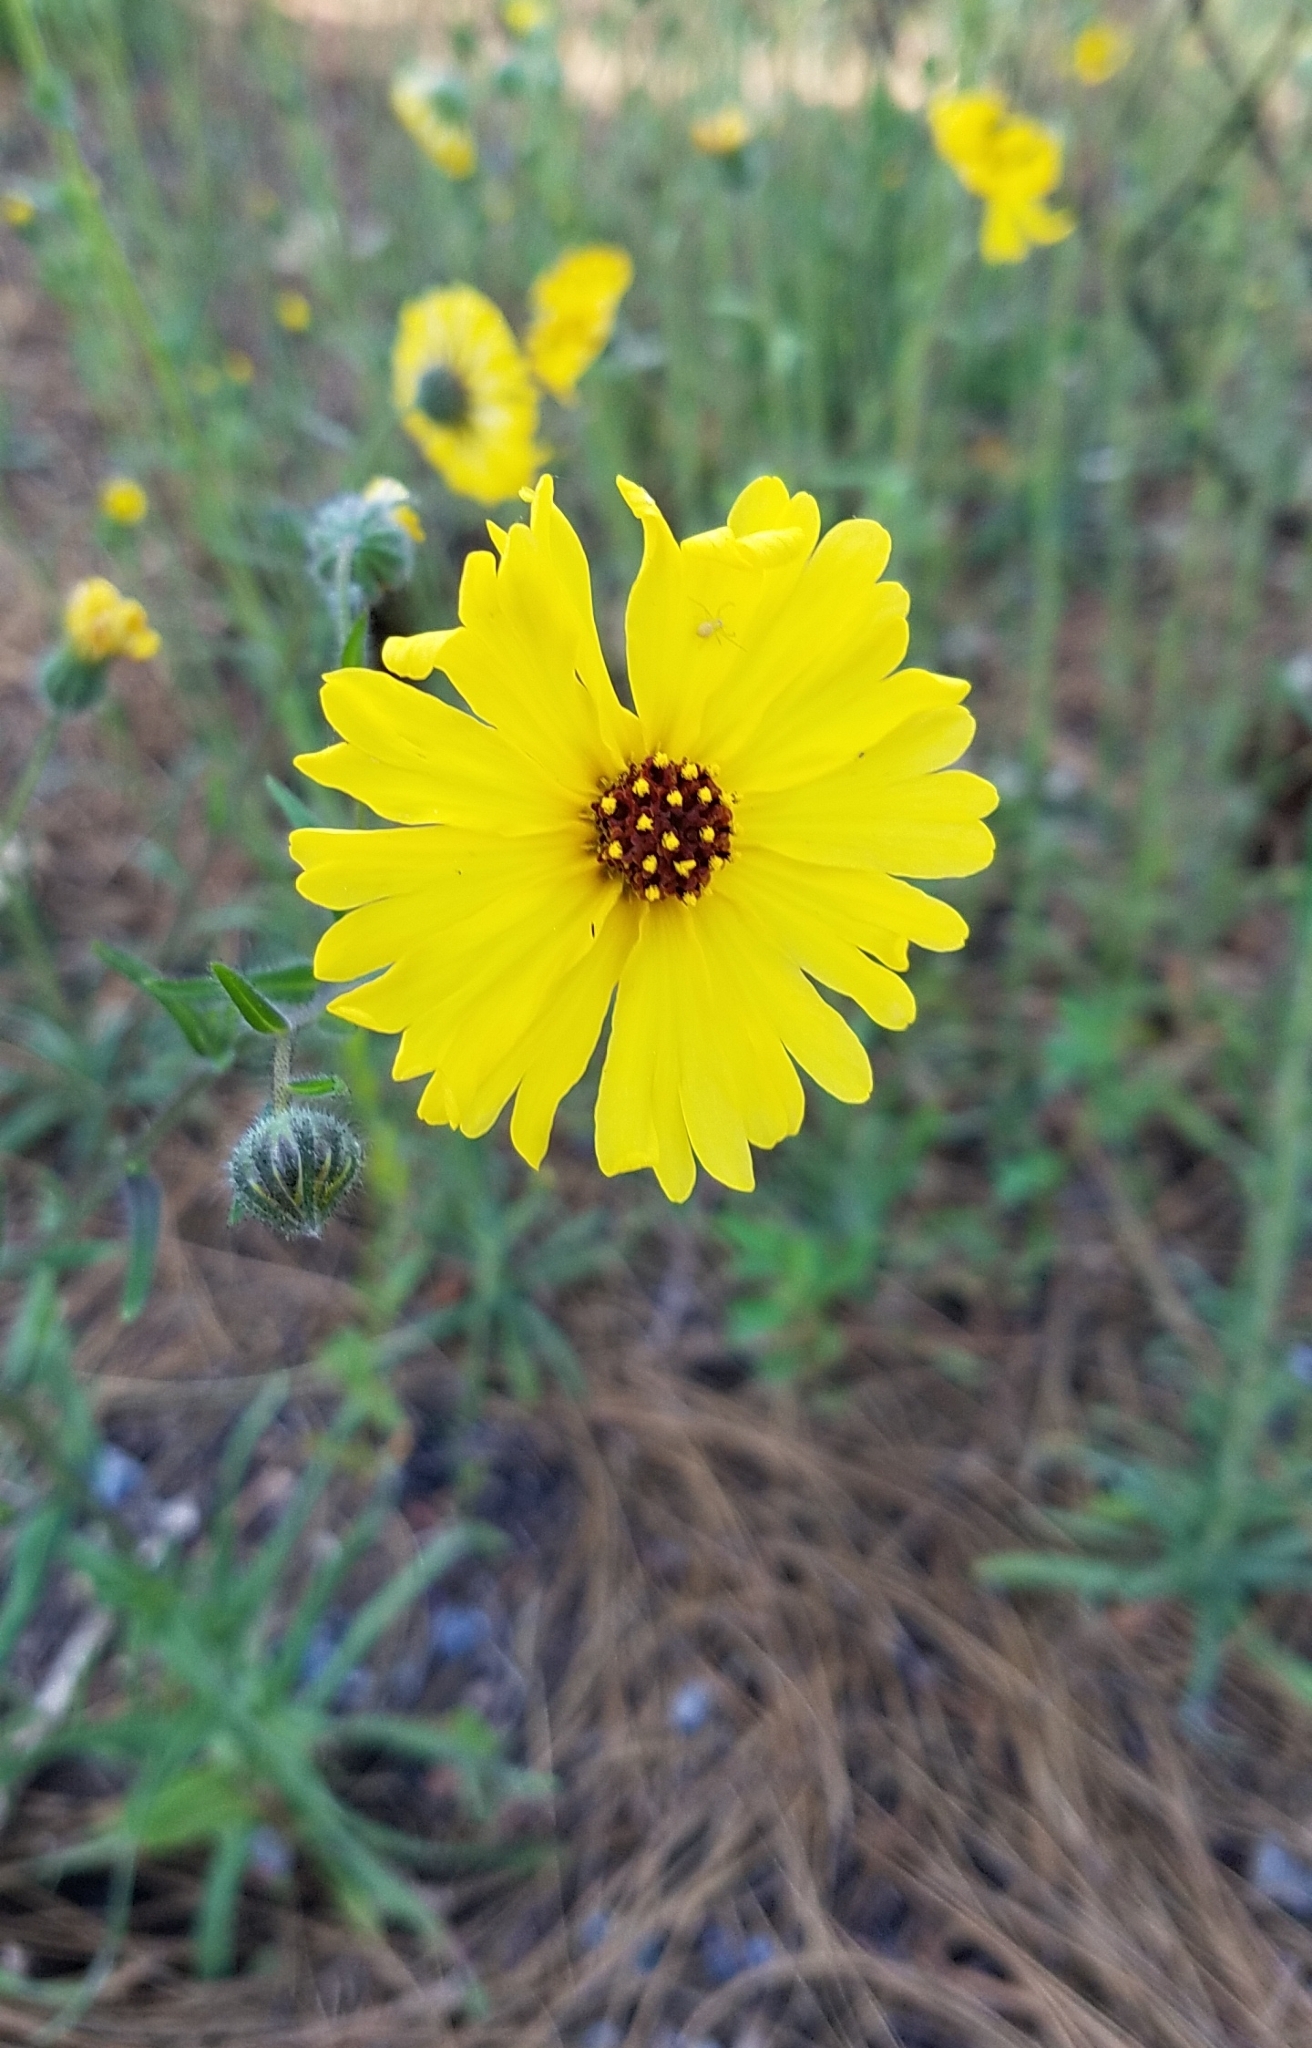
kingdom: Plantae
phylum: Tracheophyta
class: Magnoliopsida
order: Asterales
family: Asteraceae
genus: Madia
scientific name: Madia elegans
